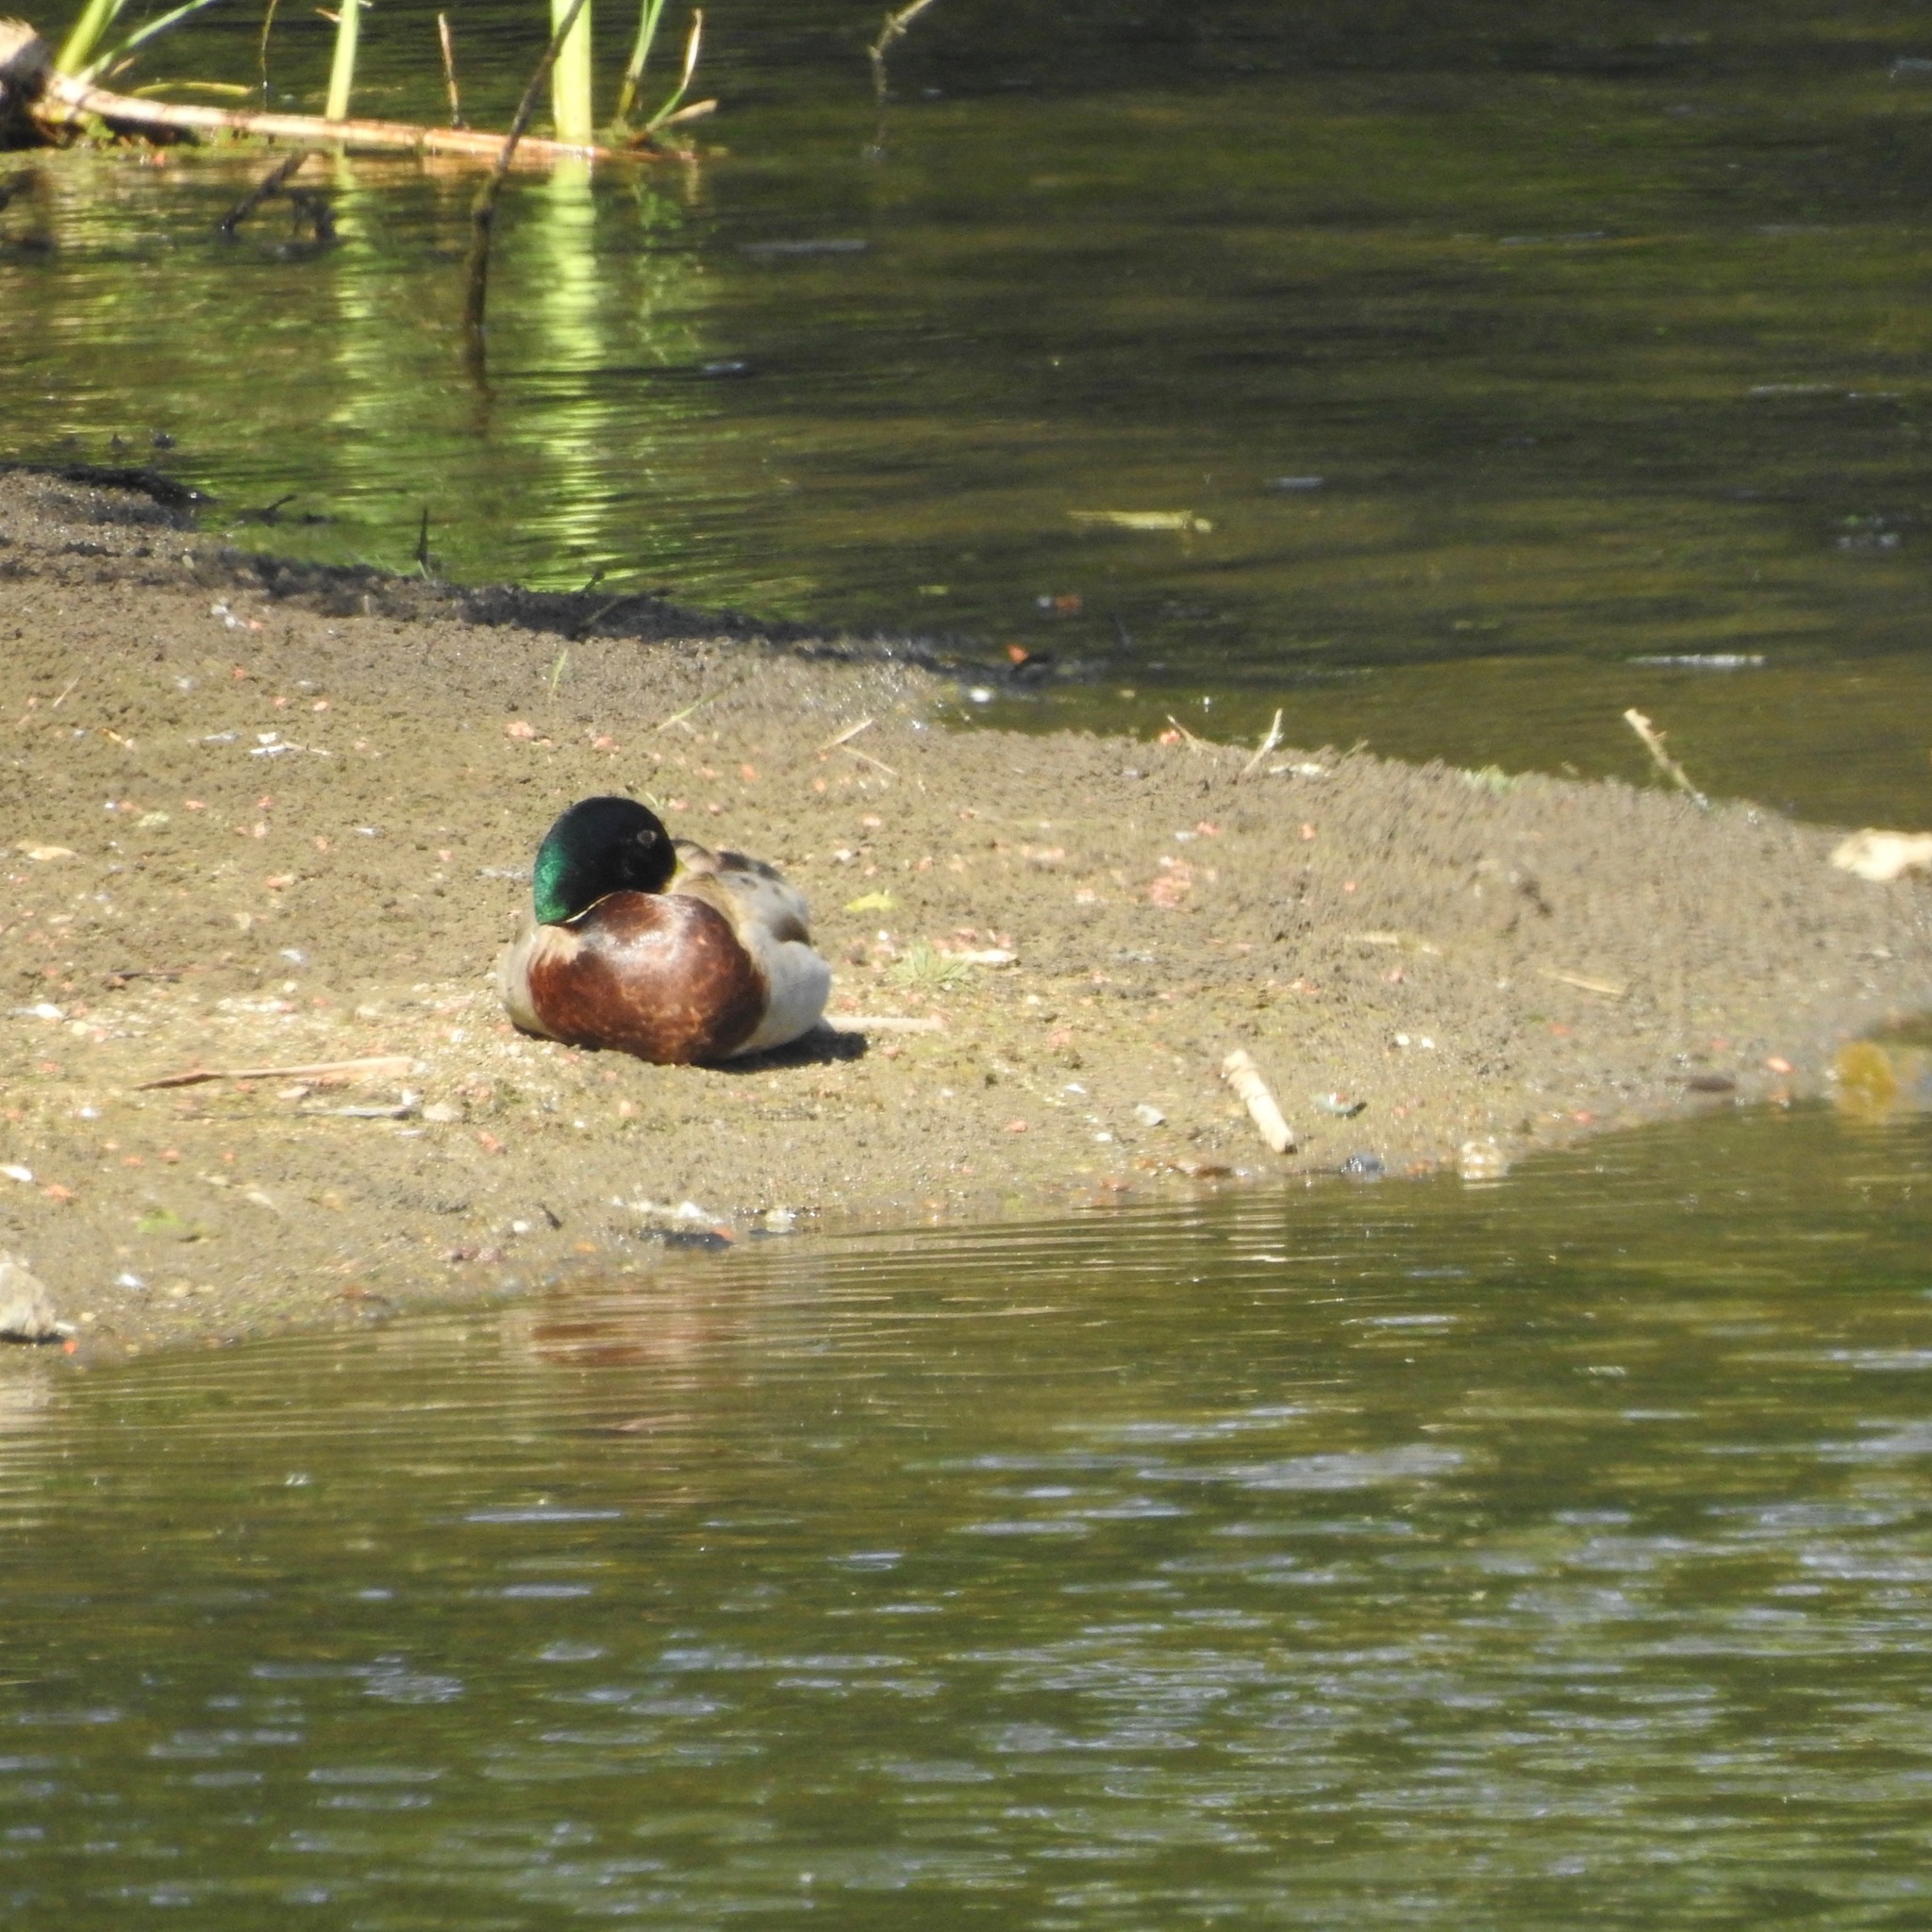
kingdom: Animalia
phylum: Chordata
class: Aves
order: Anseriformes
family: Anatidae
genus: Anas
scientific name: Anas platyrhynchos
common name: Mallard
